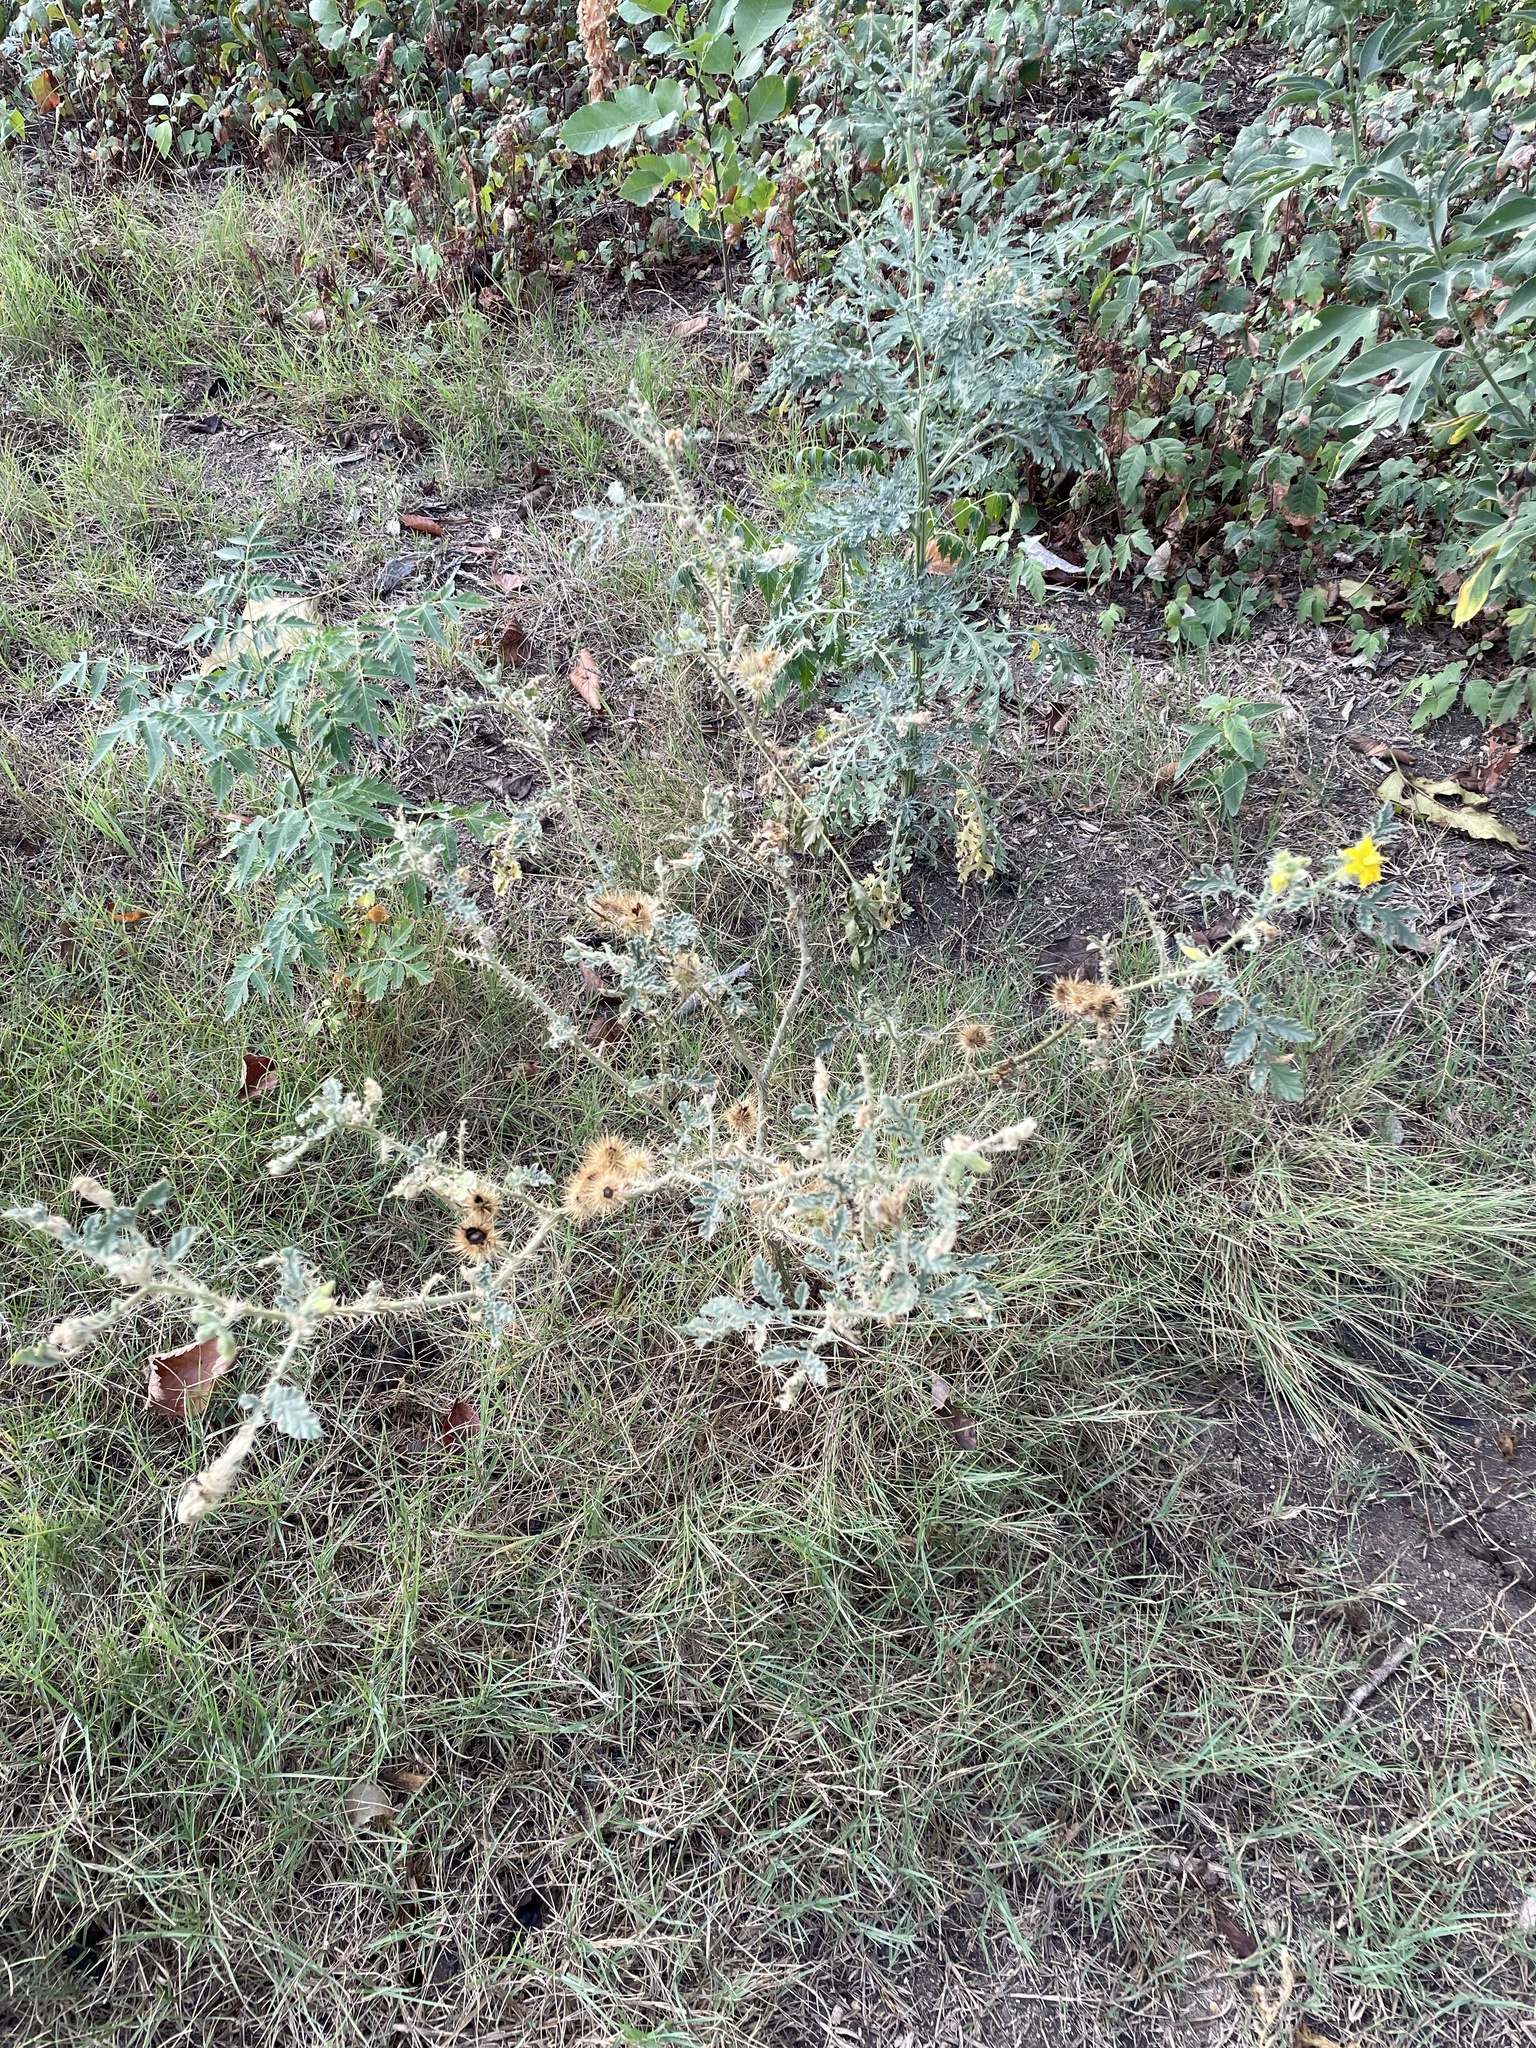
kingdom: Plantae
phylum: Tracheophyta
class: Magnoliopsida
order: Solanales
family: Solanaceae
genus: Solanum
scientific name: Solanum angustifolium
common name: Buffalobur nightshade
